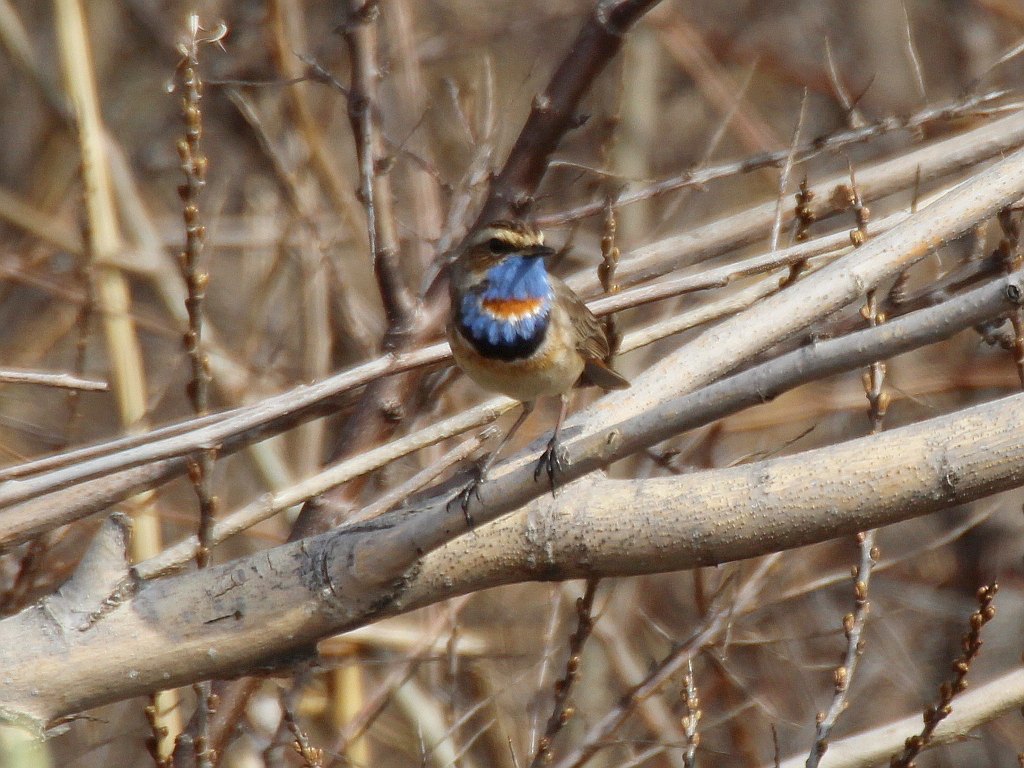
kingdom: Animalia
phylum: Chordata
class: Aves
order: Passeriformes
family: Muscicapidae
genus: Luscinia
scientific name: Luscinia svecica
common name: Bluethroat
